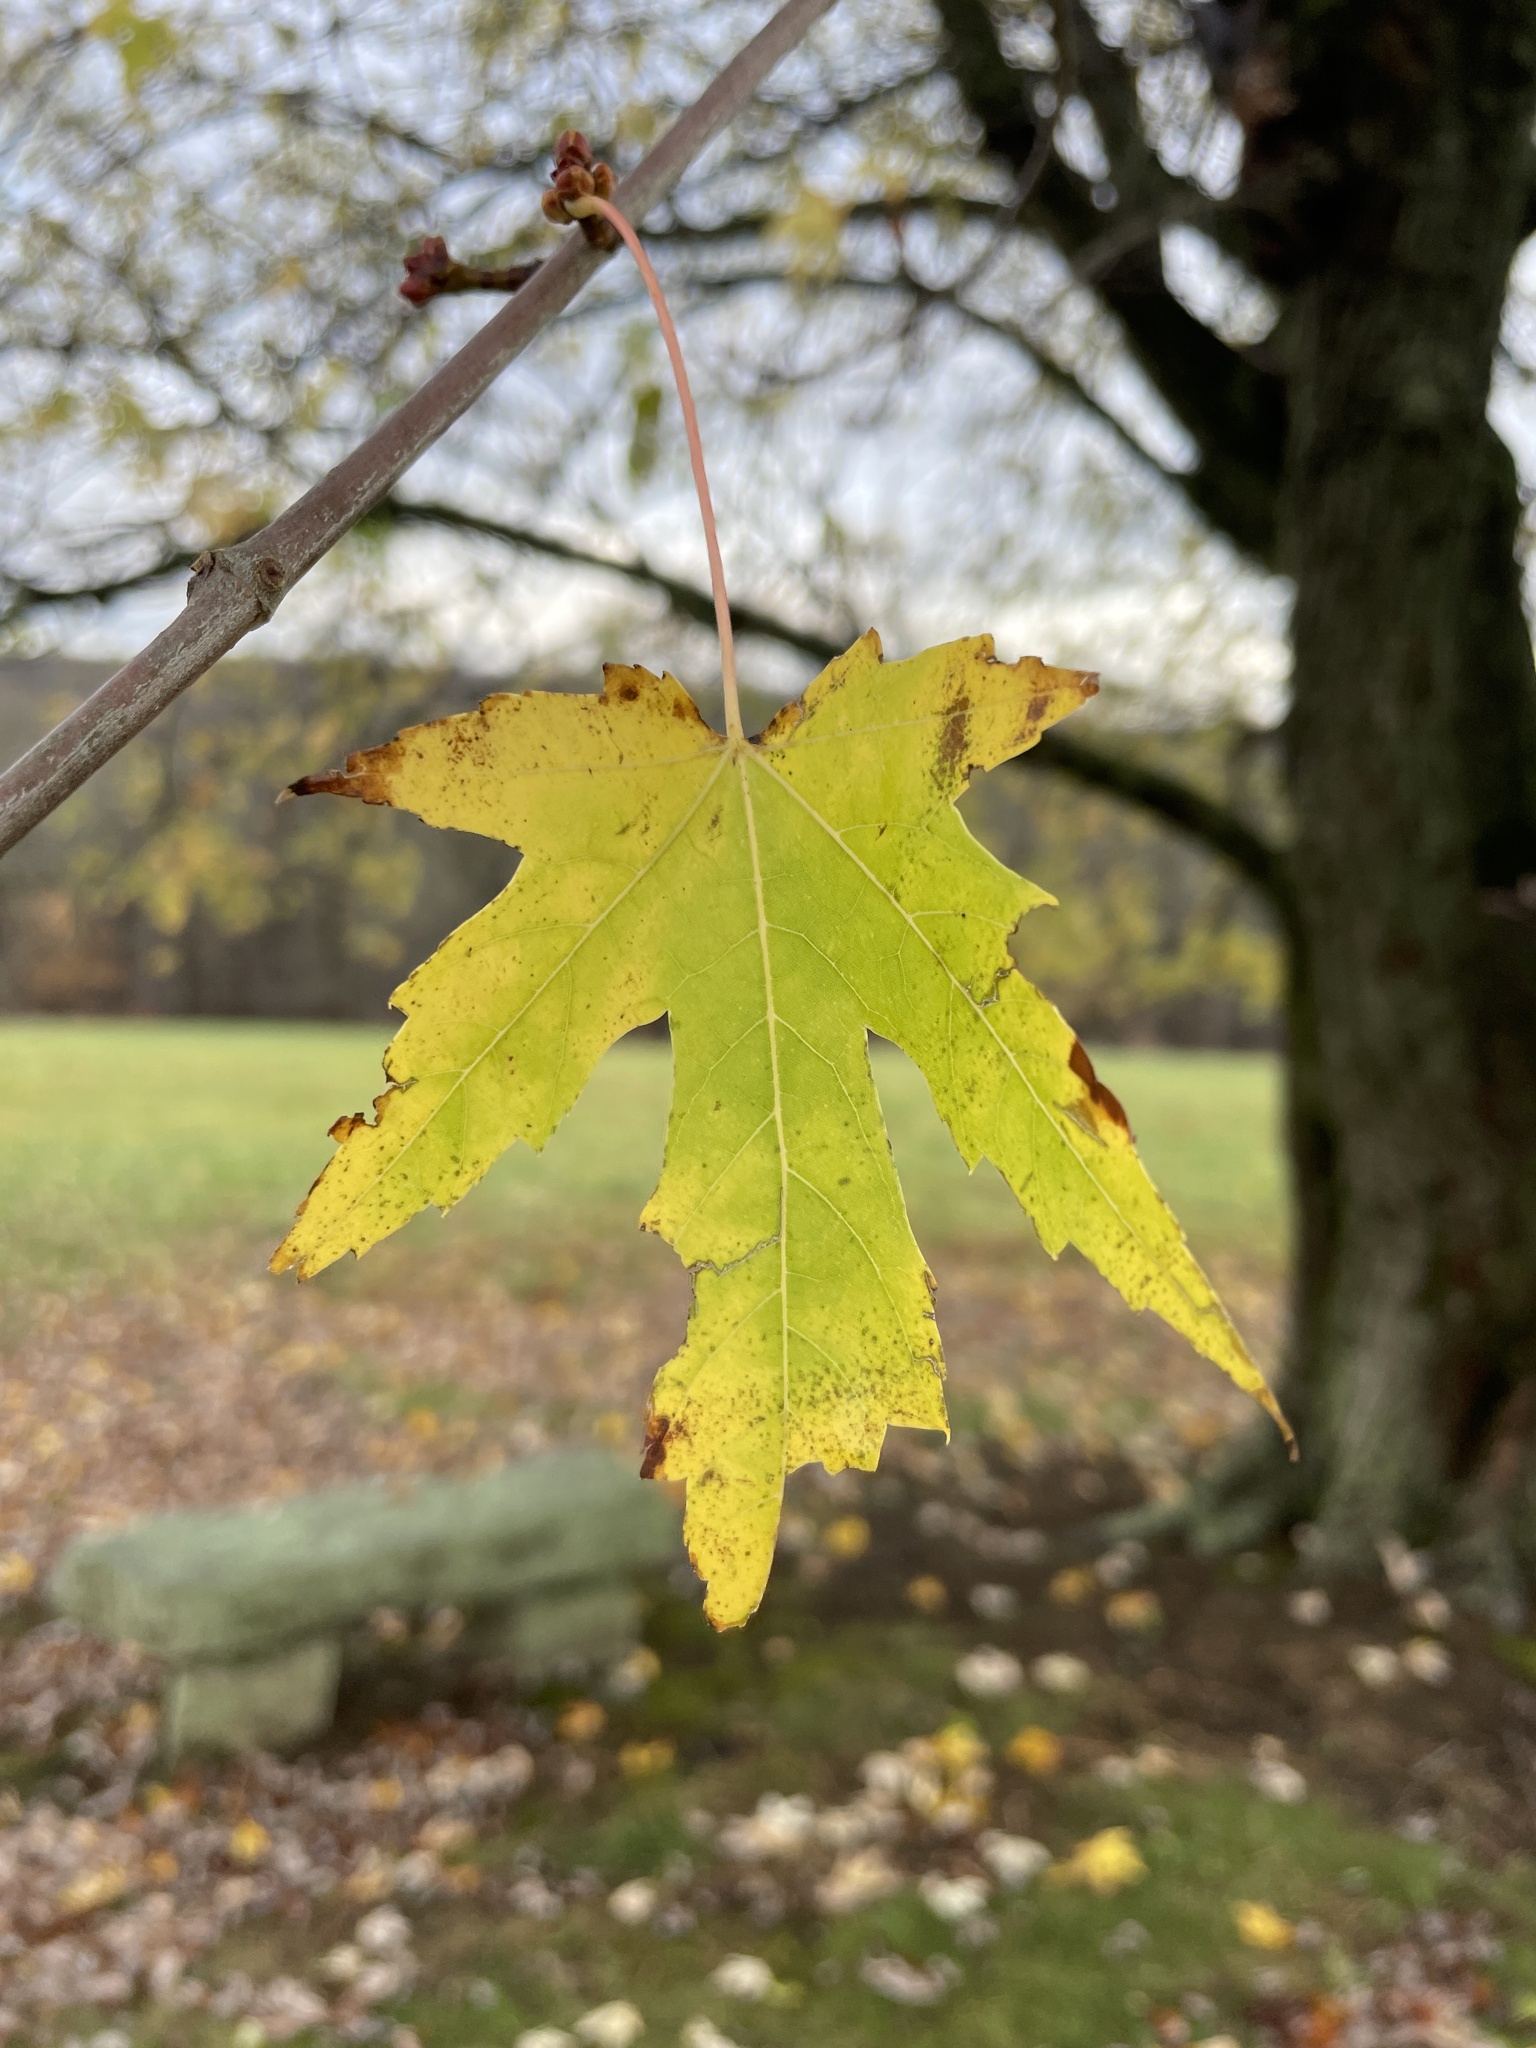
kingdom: Plantae
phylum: Tracheophyta
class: Magnoliopsida
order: Sapindales
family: Sapindaceae
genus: Acer
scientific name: Acer saccharinum
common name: Silver maple
